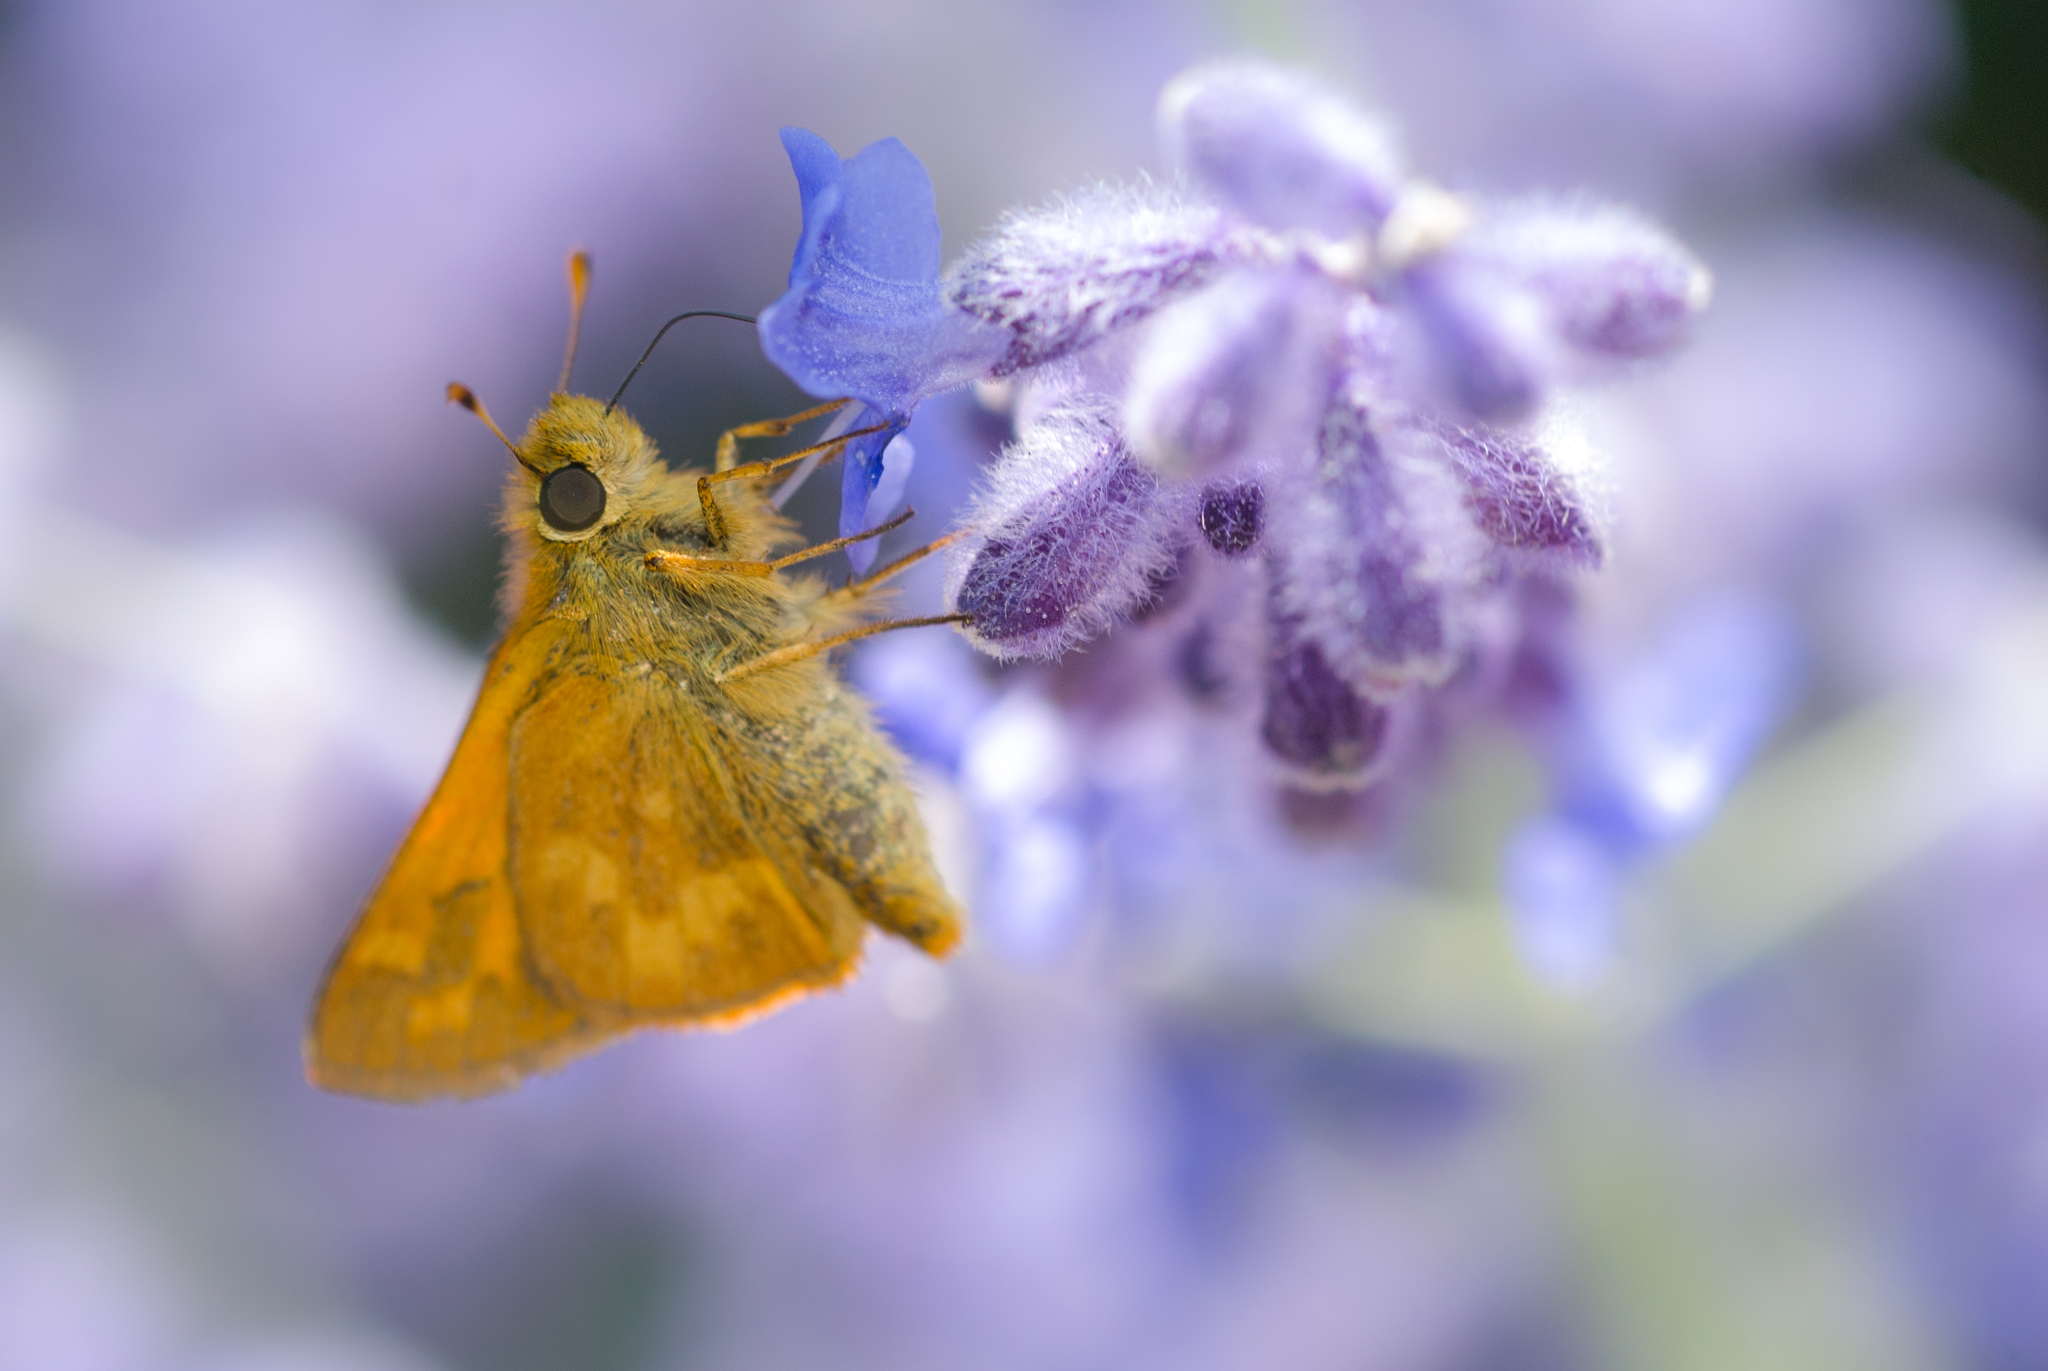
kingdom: Animalia
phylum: Arthropoda
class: Insecta
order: Lepidoptera
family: Hesperiidae
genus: Ochlodes
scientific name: Ochlodes sylvanoides
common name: Woodland skipper
